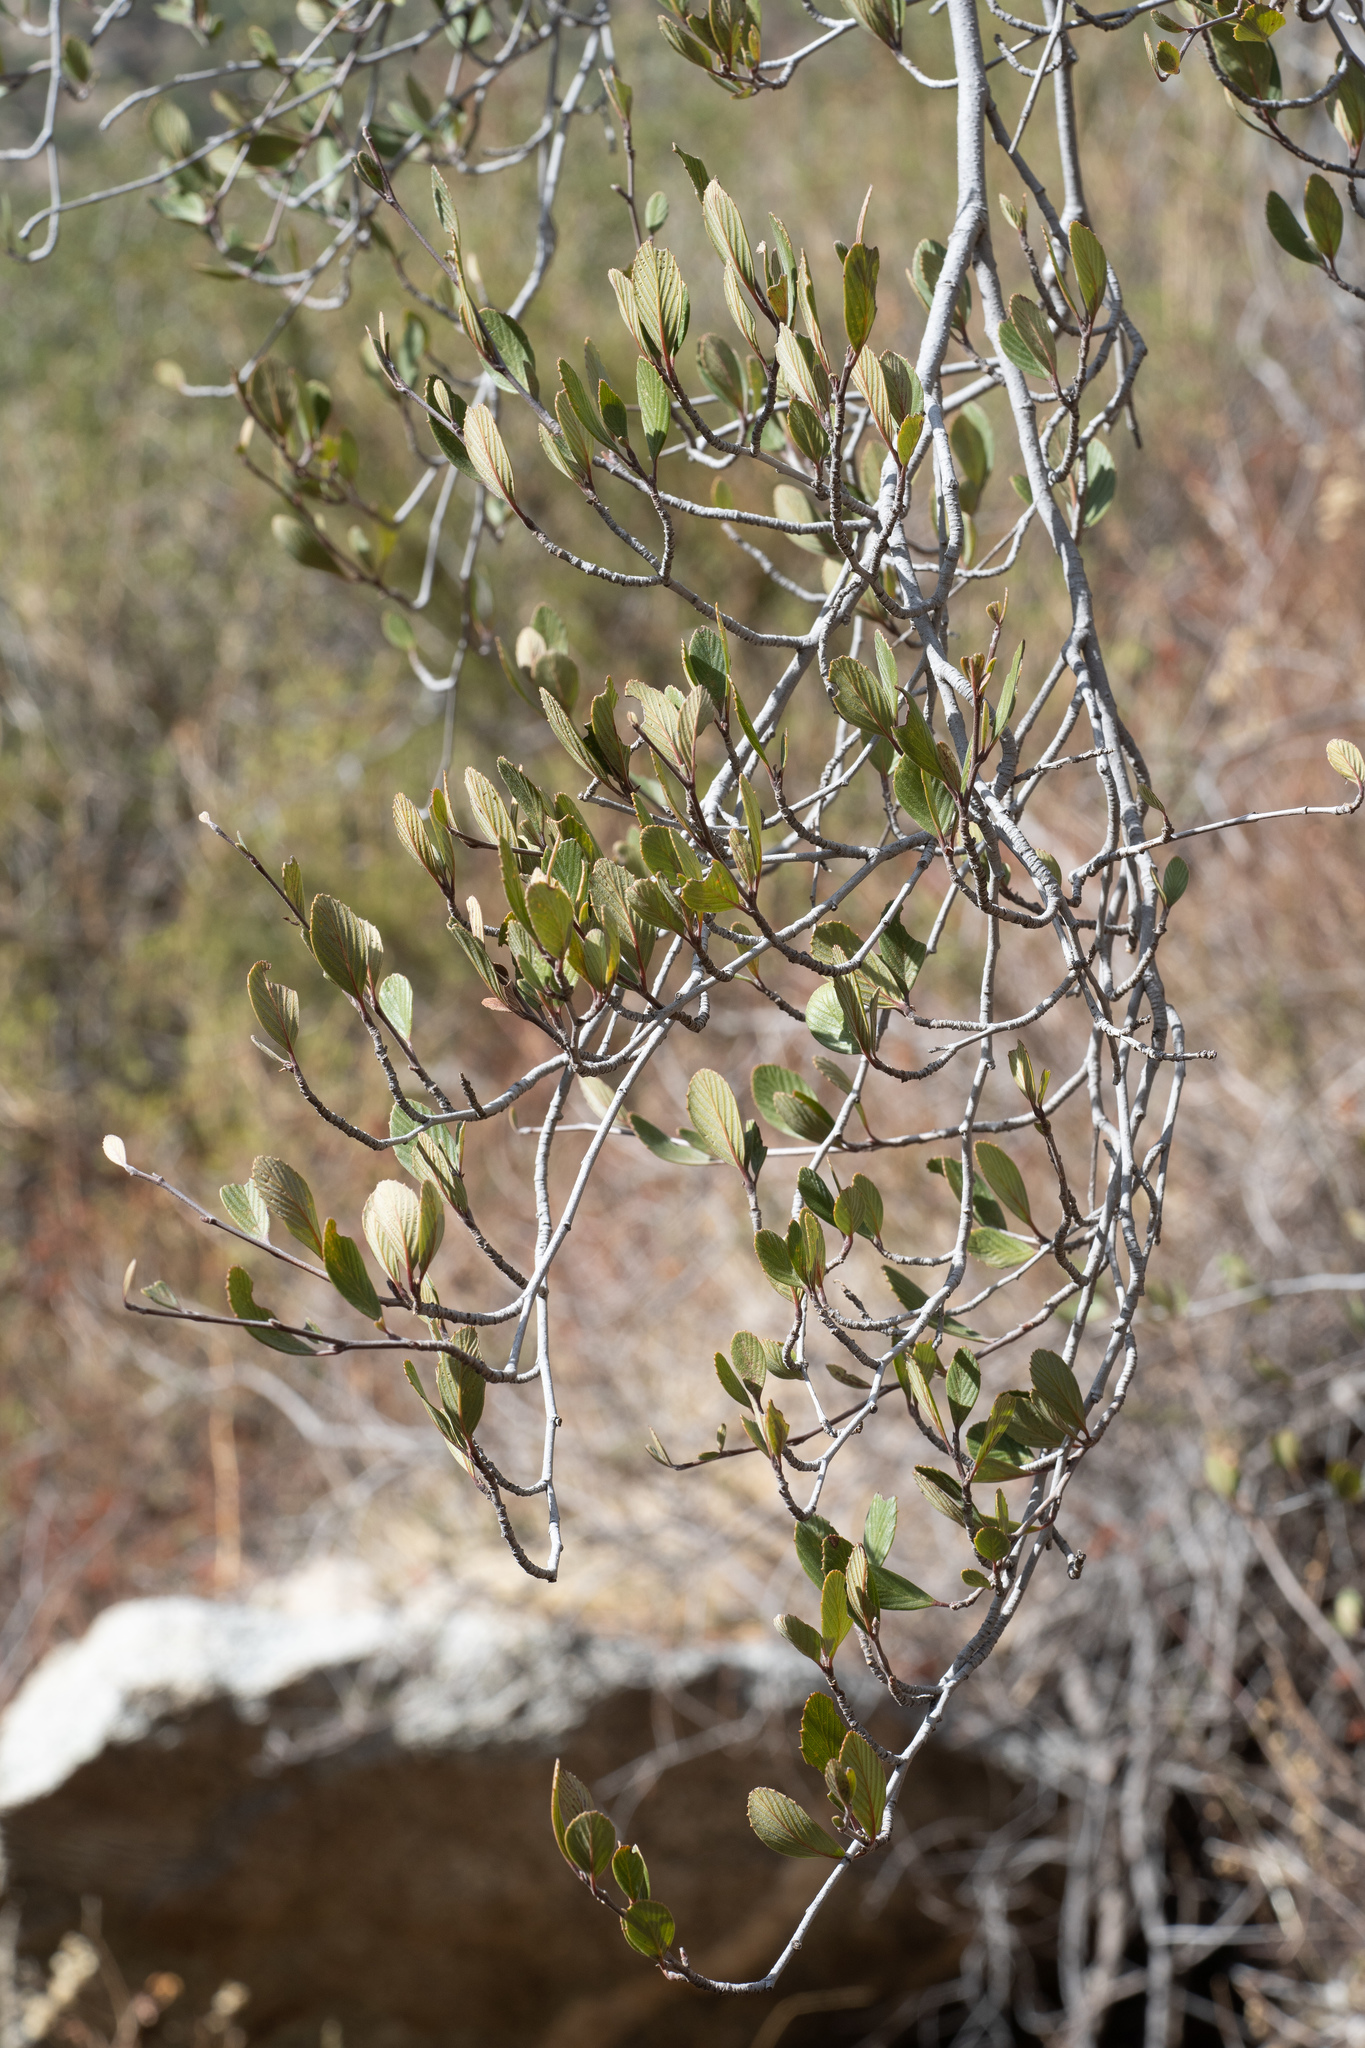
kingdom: Plantae
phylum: Tracheophyta
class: Magnoliopsida
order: Rosales
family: Rosaceae
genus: Cercocarpus
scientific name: Cercocarpus betuloides
